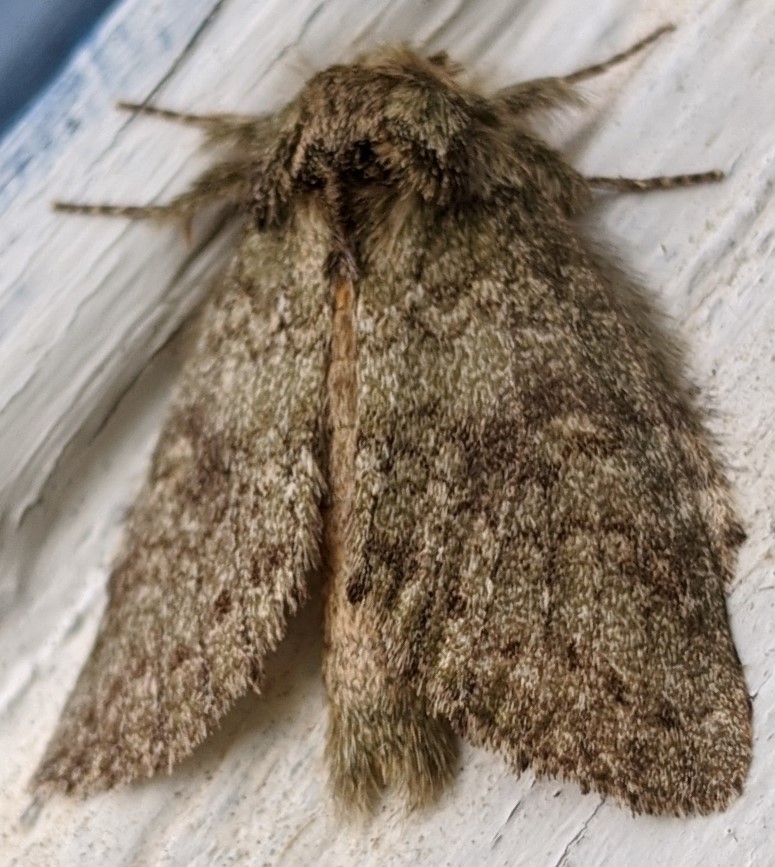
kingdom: Animalia
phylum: Arthropoda
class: Insecta
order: Lepidoptera
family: Notodontidae
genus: Disphragis
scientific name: Disphragis Cecrita guttivitta
